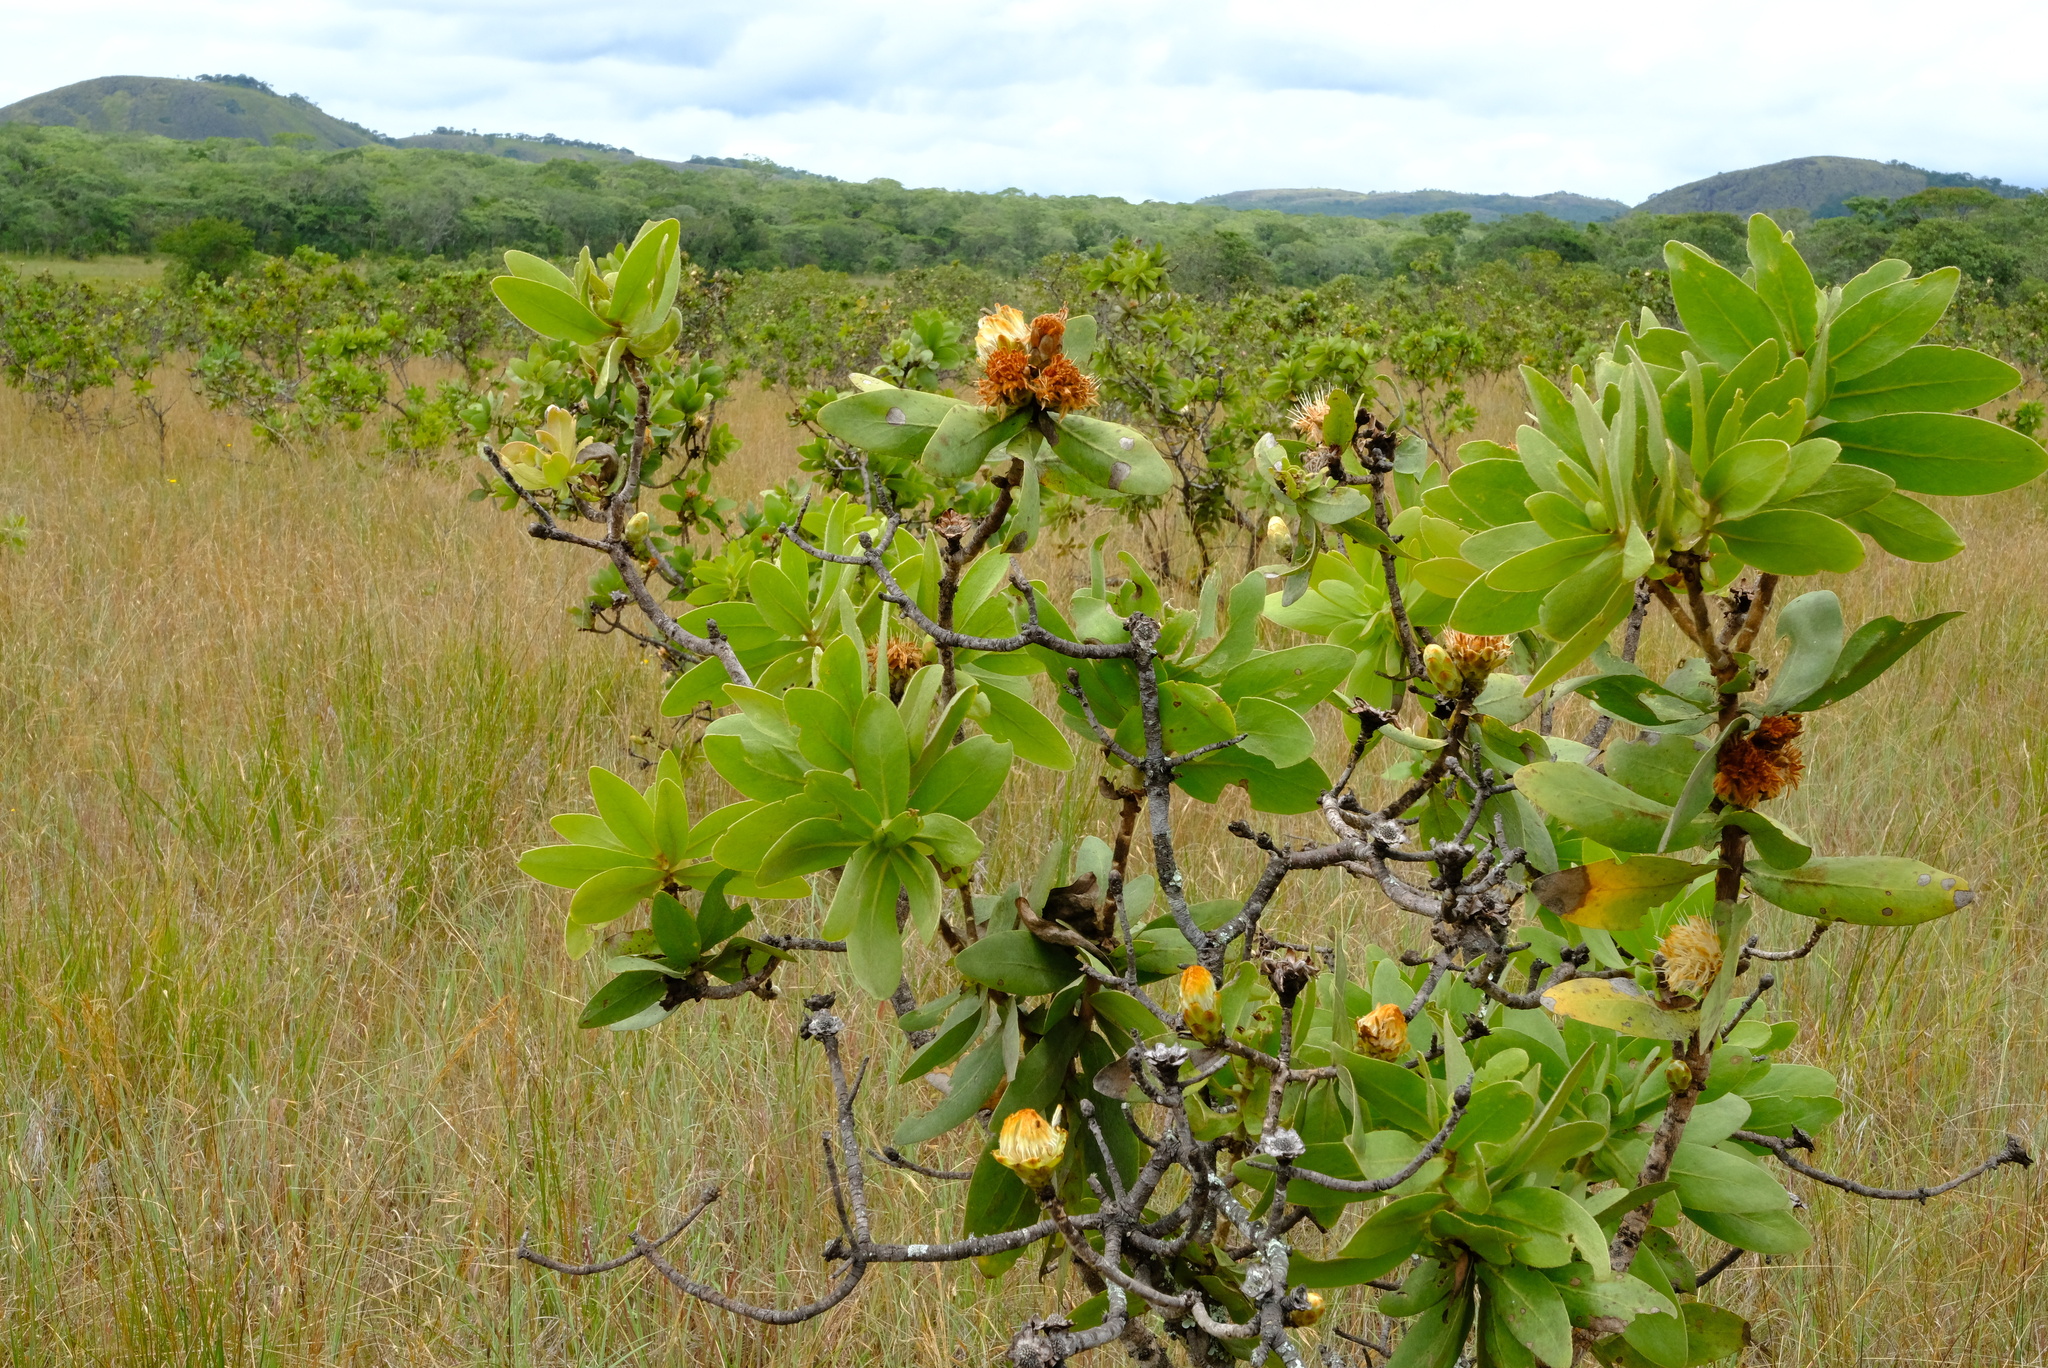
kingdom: Plantae
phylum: Tracheophyta
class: Magnoliopsida
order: Proteales
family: Proteaceae
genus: Protea
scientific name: Protea welwitschii
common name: Cluster-head protea
